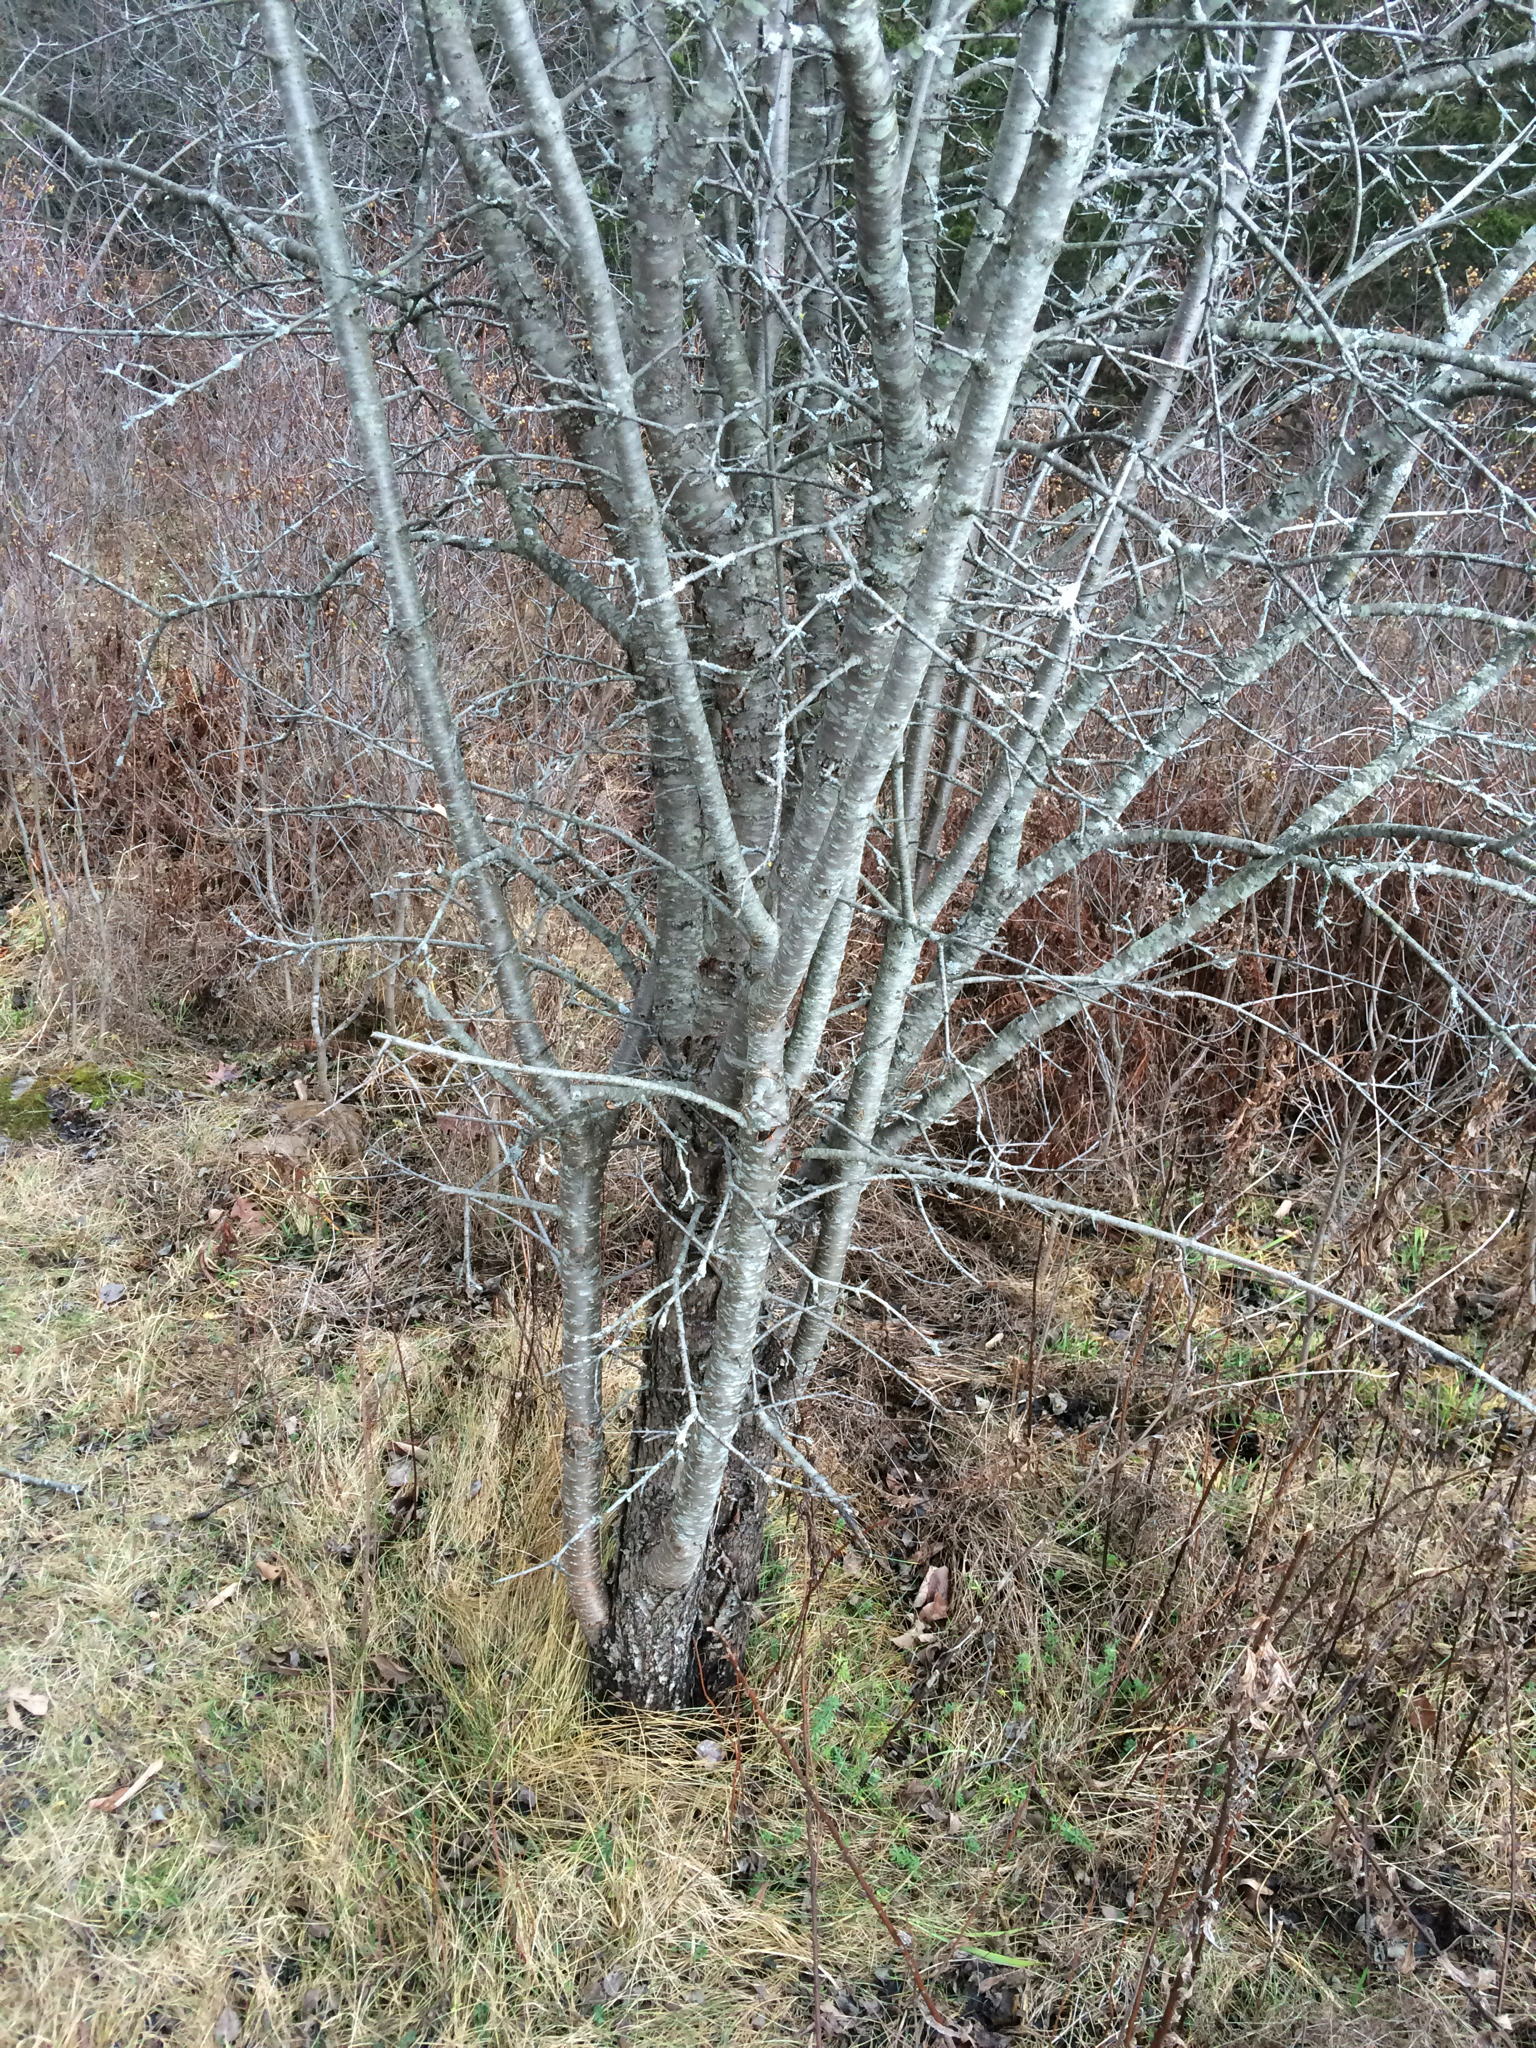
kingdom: Plantae
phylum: Tracheophyta
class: Magnoliopsida
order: Rosales
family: Rhamnaceae
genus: Rhamnus
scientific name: Rhamnus cathartica
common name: Common buckthorn
